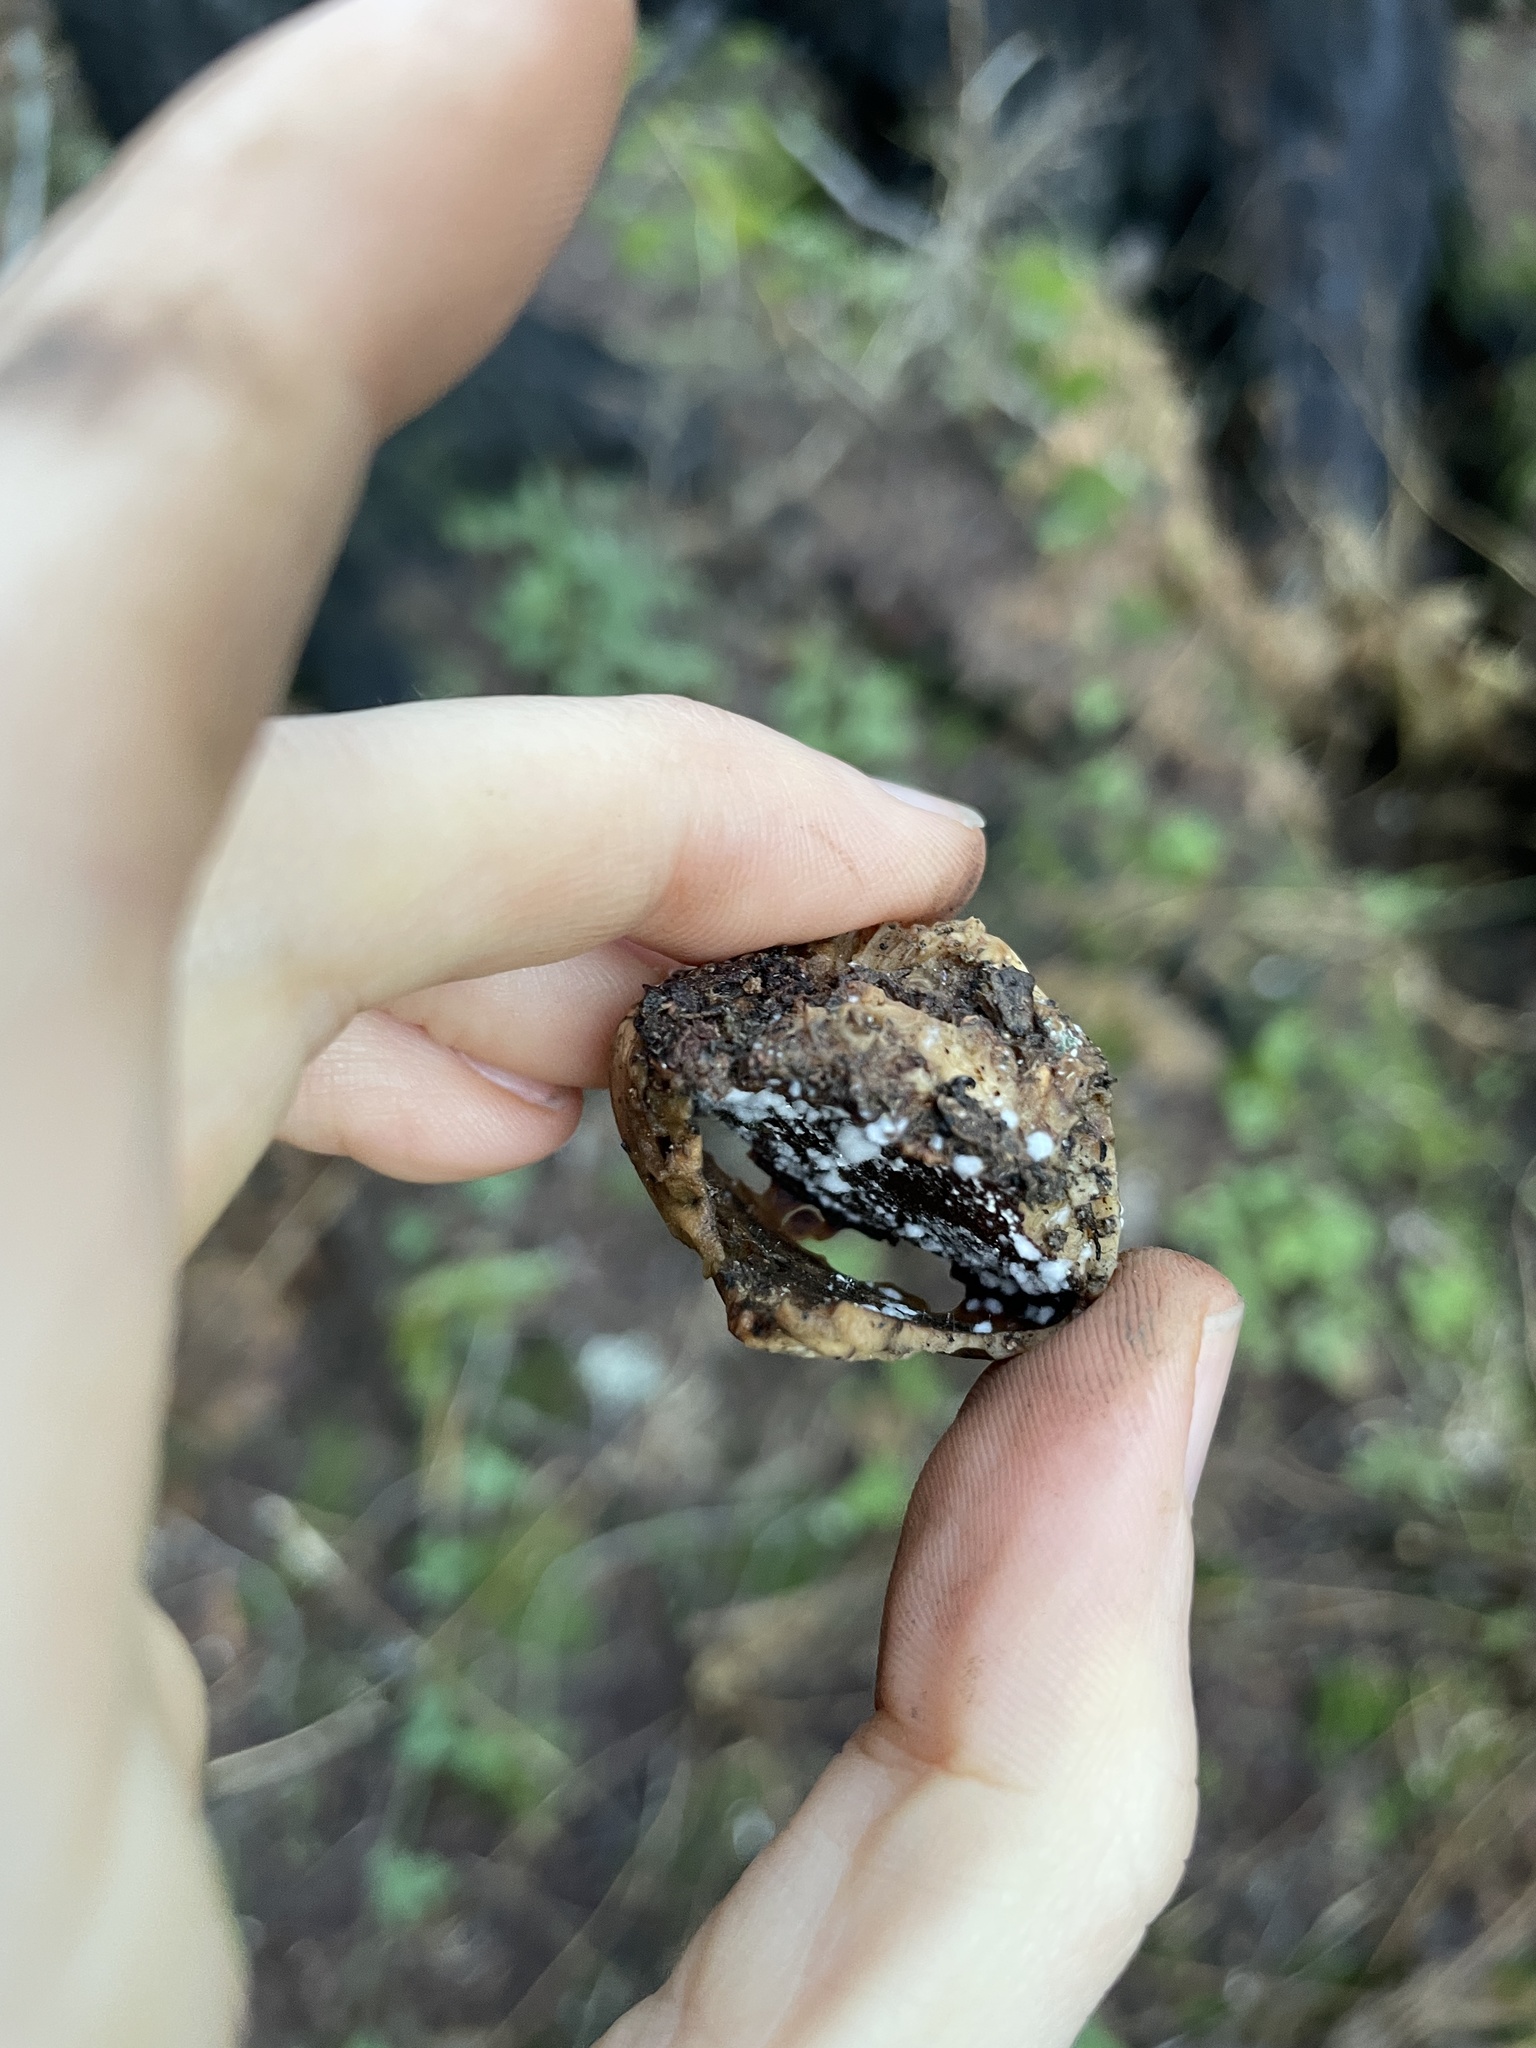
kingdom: Fungi
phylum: Basidiomycota
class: Agaricomycetes
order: Polyporales
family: Polyporaceae
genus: Cryptoporus
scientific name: Cryptoporus volvatus
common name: Veiled polypore
